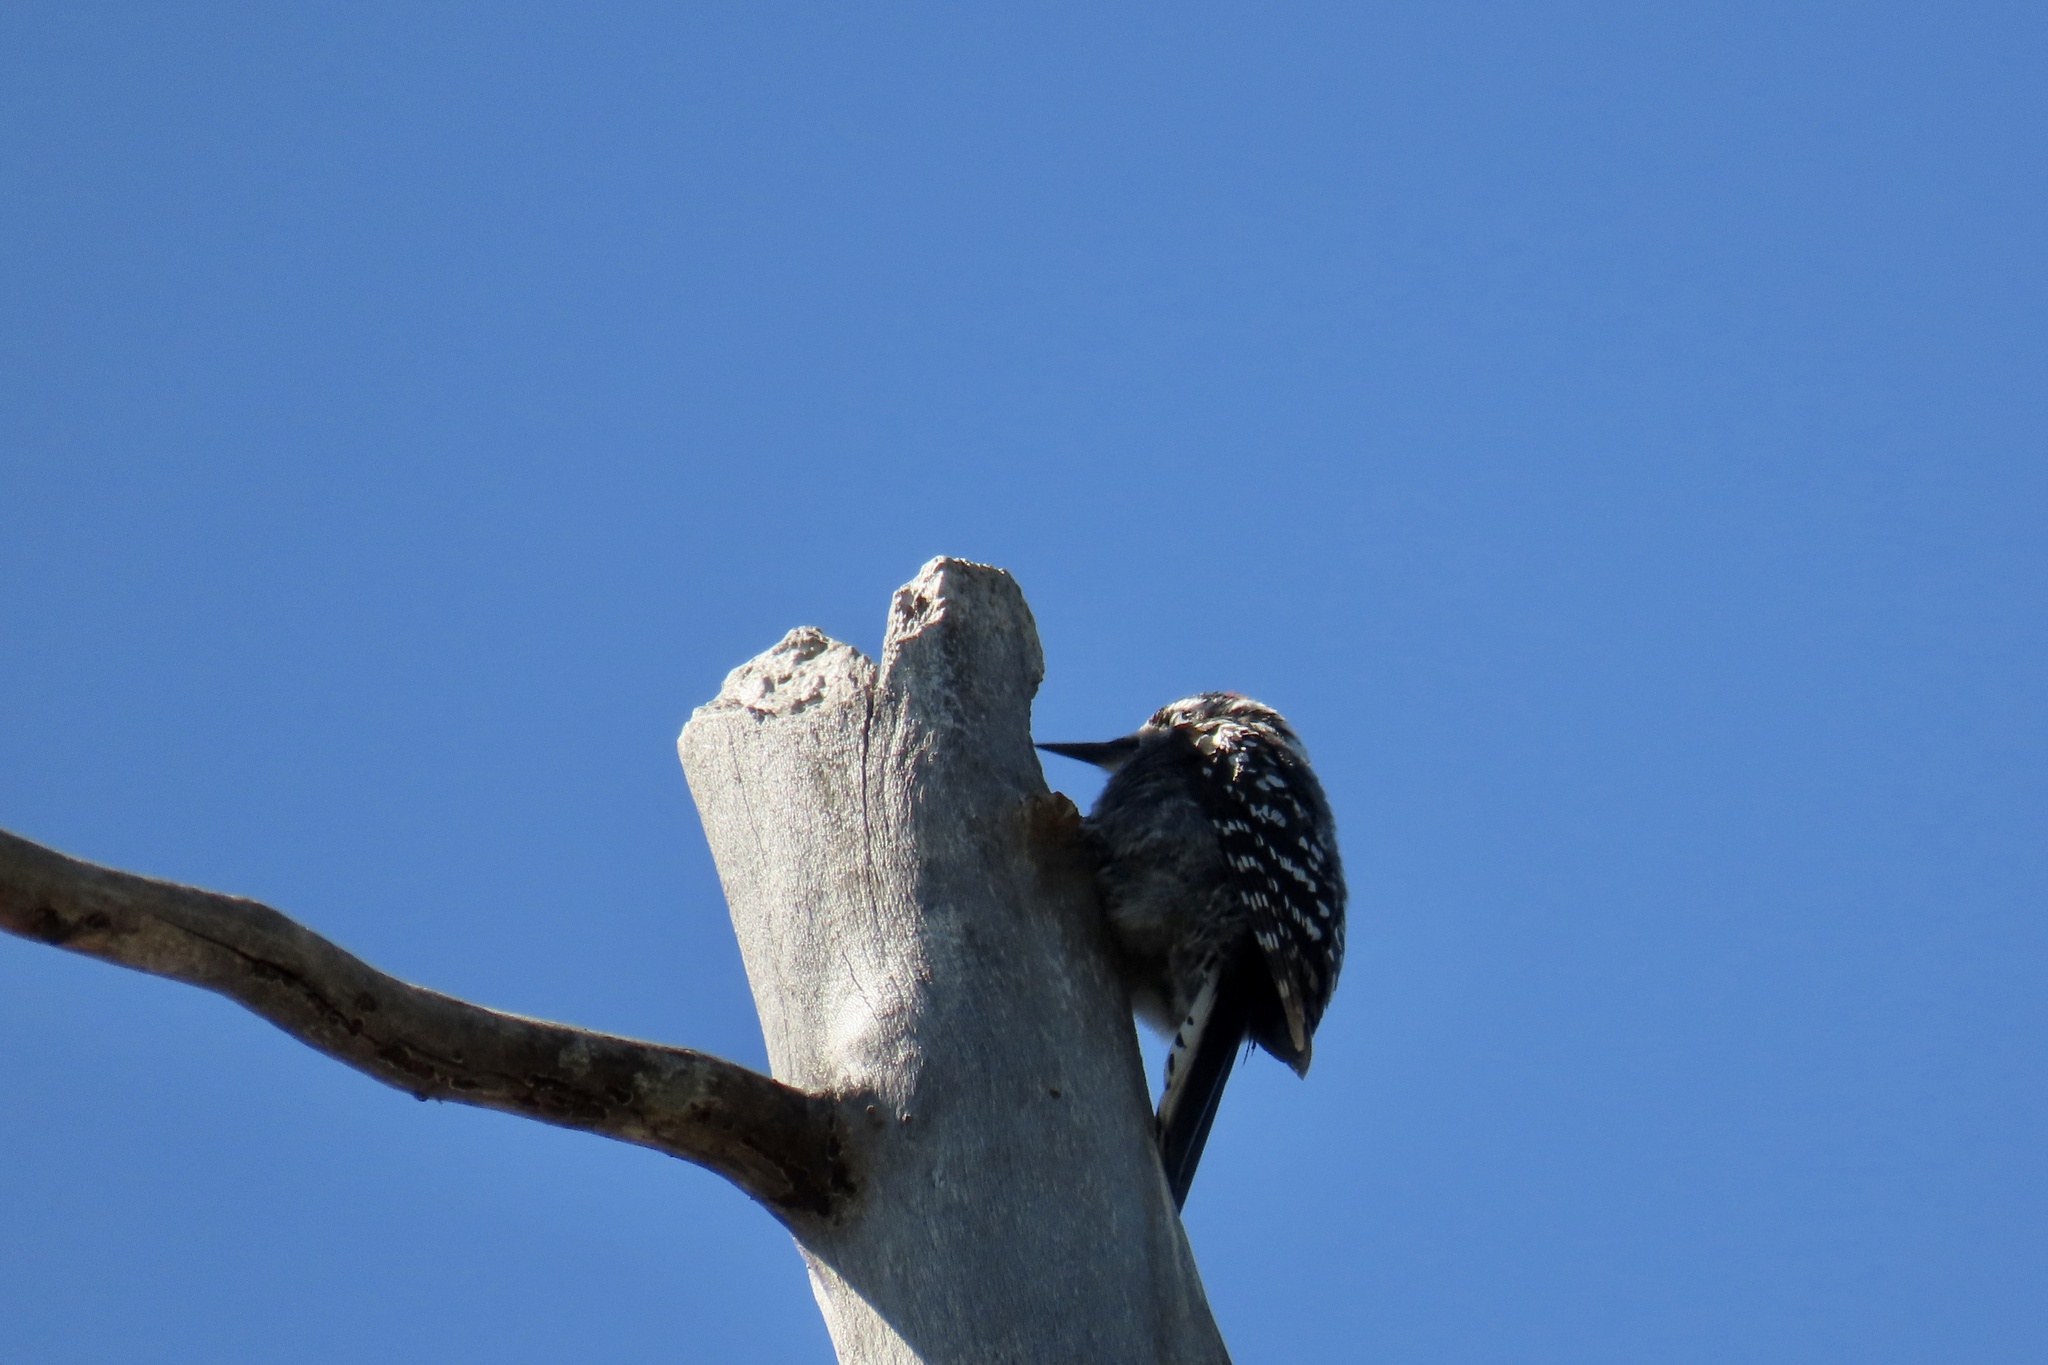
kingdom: Animalia
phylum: Chordata
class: Aves
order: Piciformes
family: Picidae
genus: Dryobates
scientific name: Dryobates nuttallii
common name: Nuttall's woodpecker
